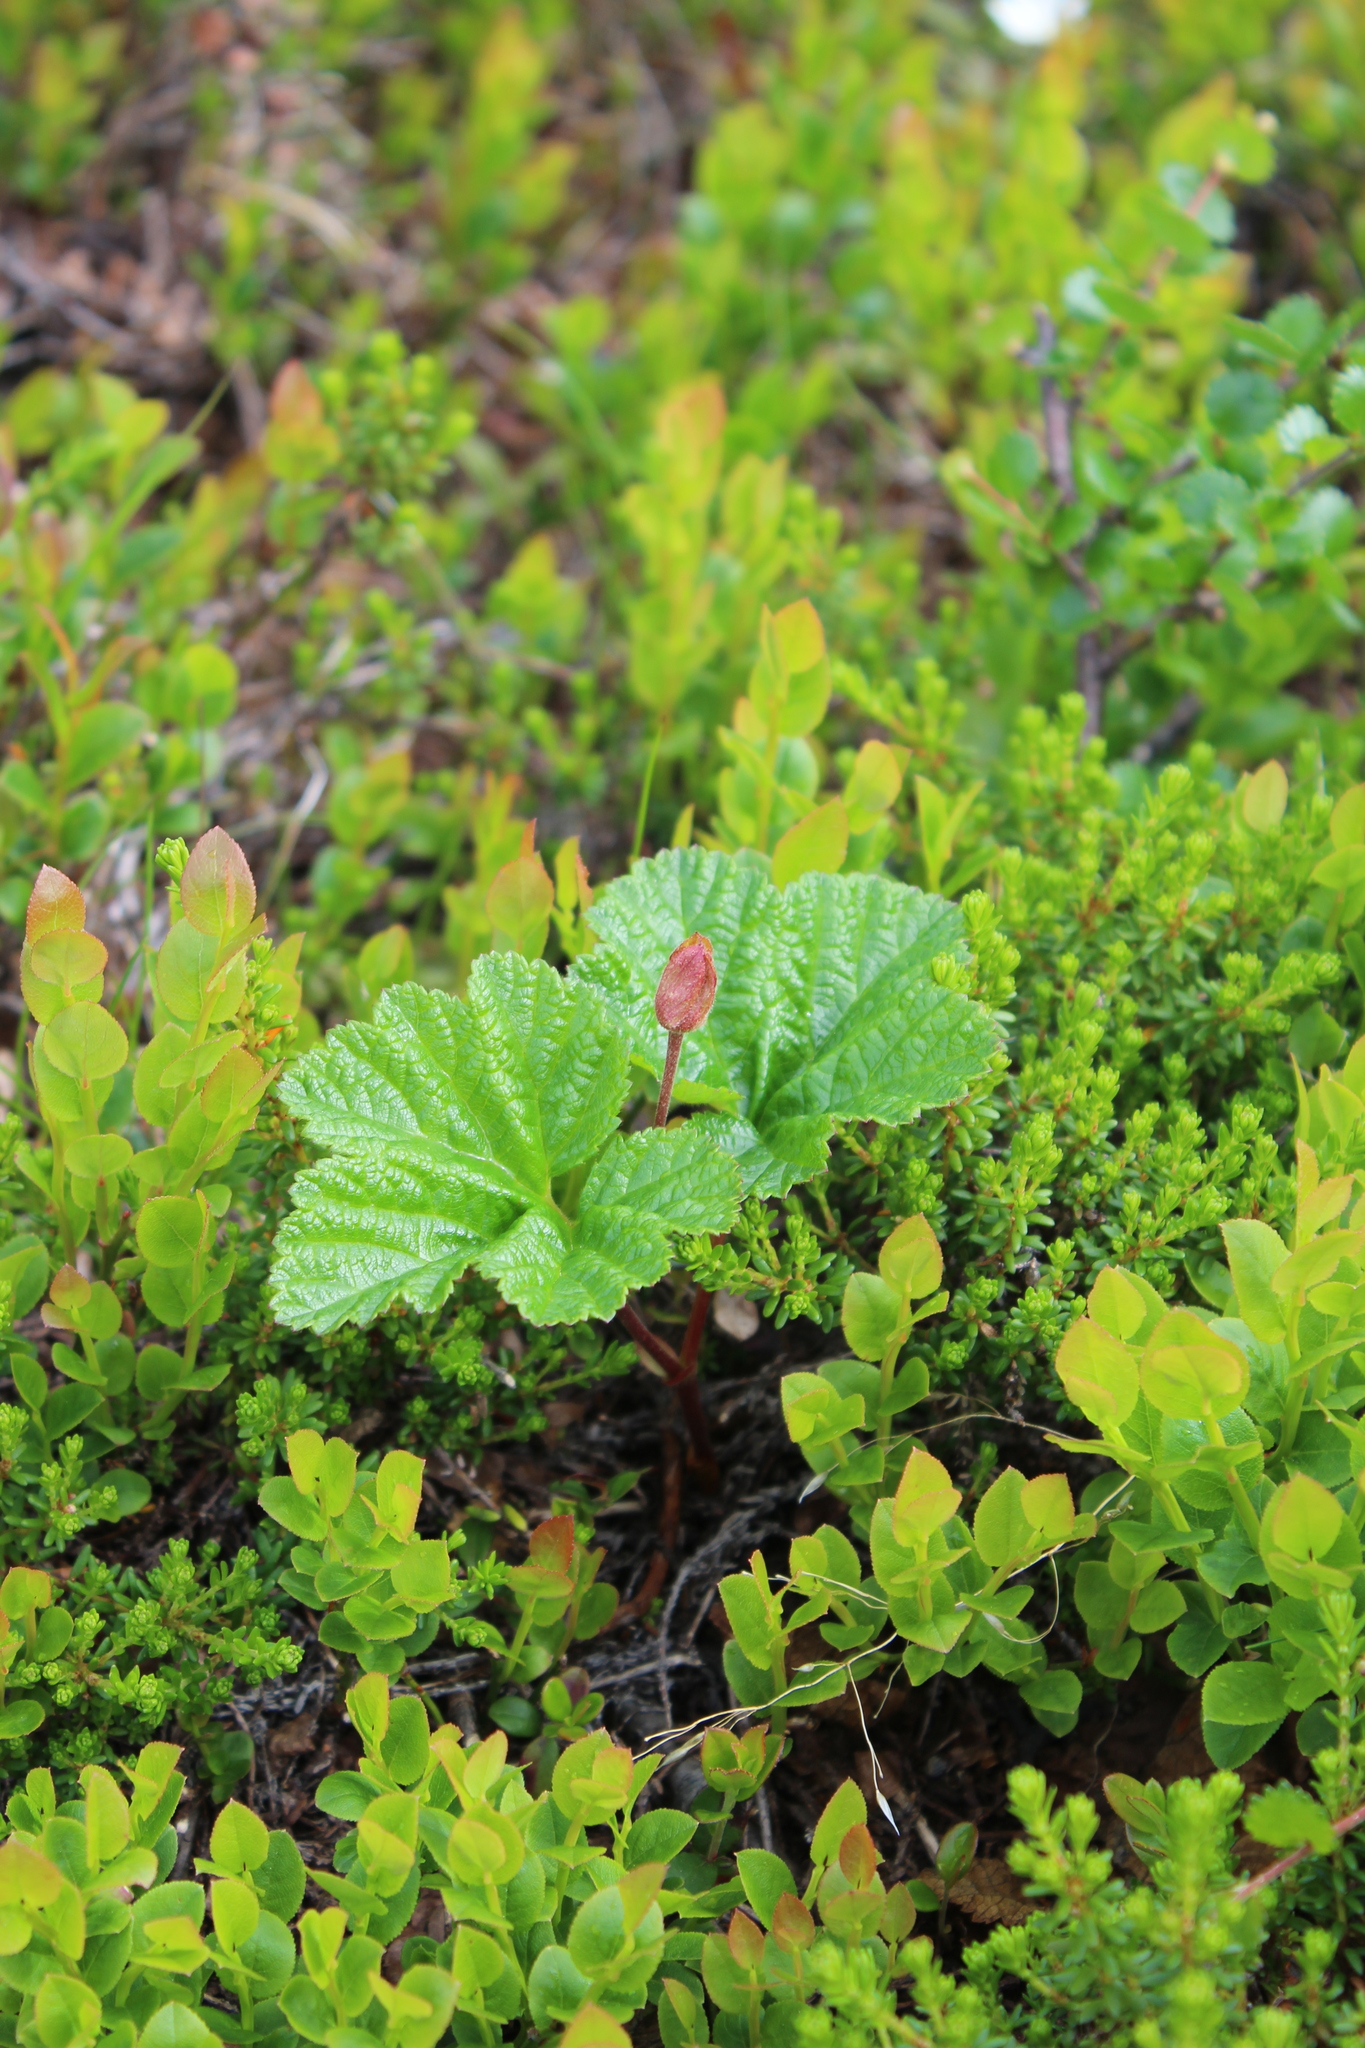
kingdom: Plantae
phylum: Tracheophyta
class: Magnoliopsida
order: Rosales
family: Rosaceae
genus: Rubus
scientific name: Rubus chamaemorus
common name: Cloudberry
